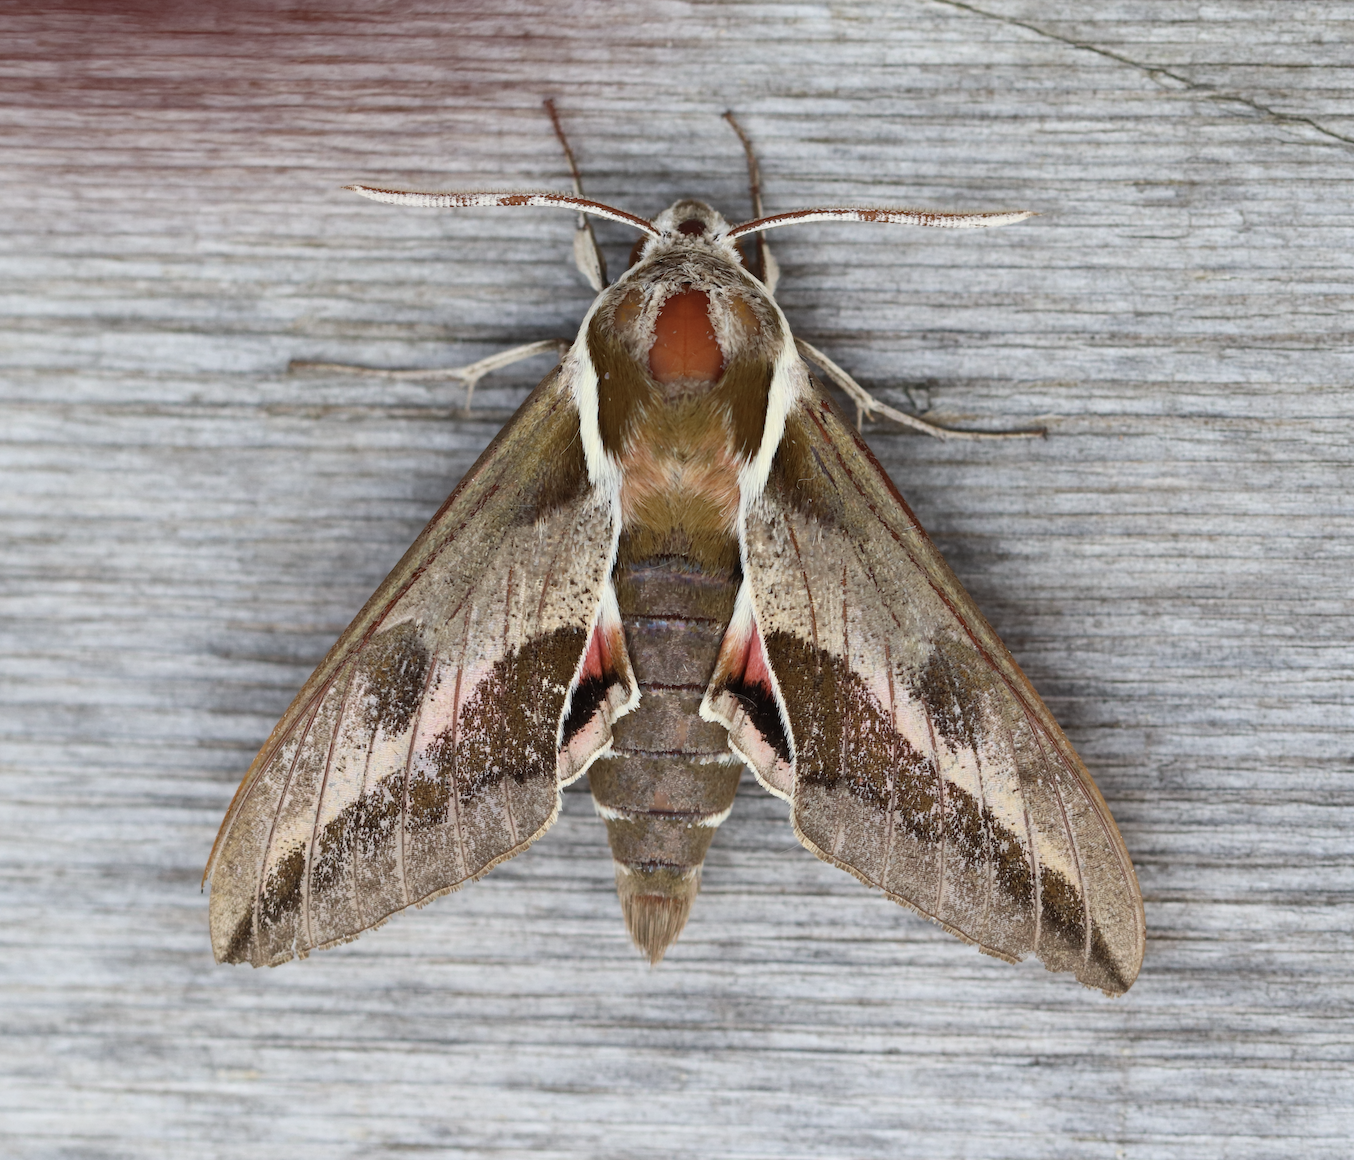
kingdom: Animalia
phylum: Arthropoda
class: Insecta
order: Lepidoptera
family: Sphingidae
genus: Hyles
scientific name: Hyles euphorbiae
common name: Spurge hawk-moth
